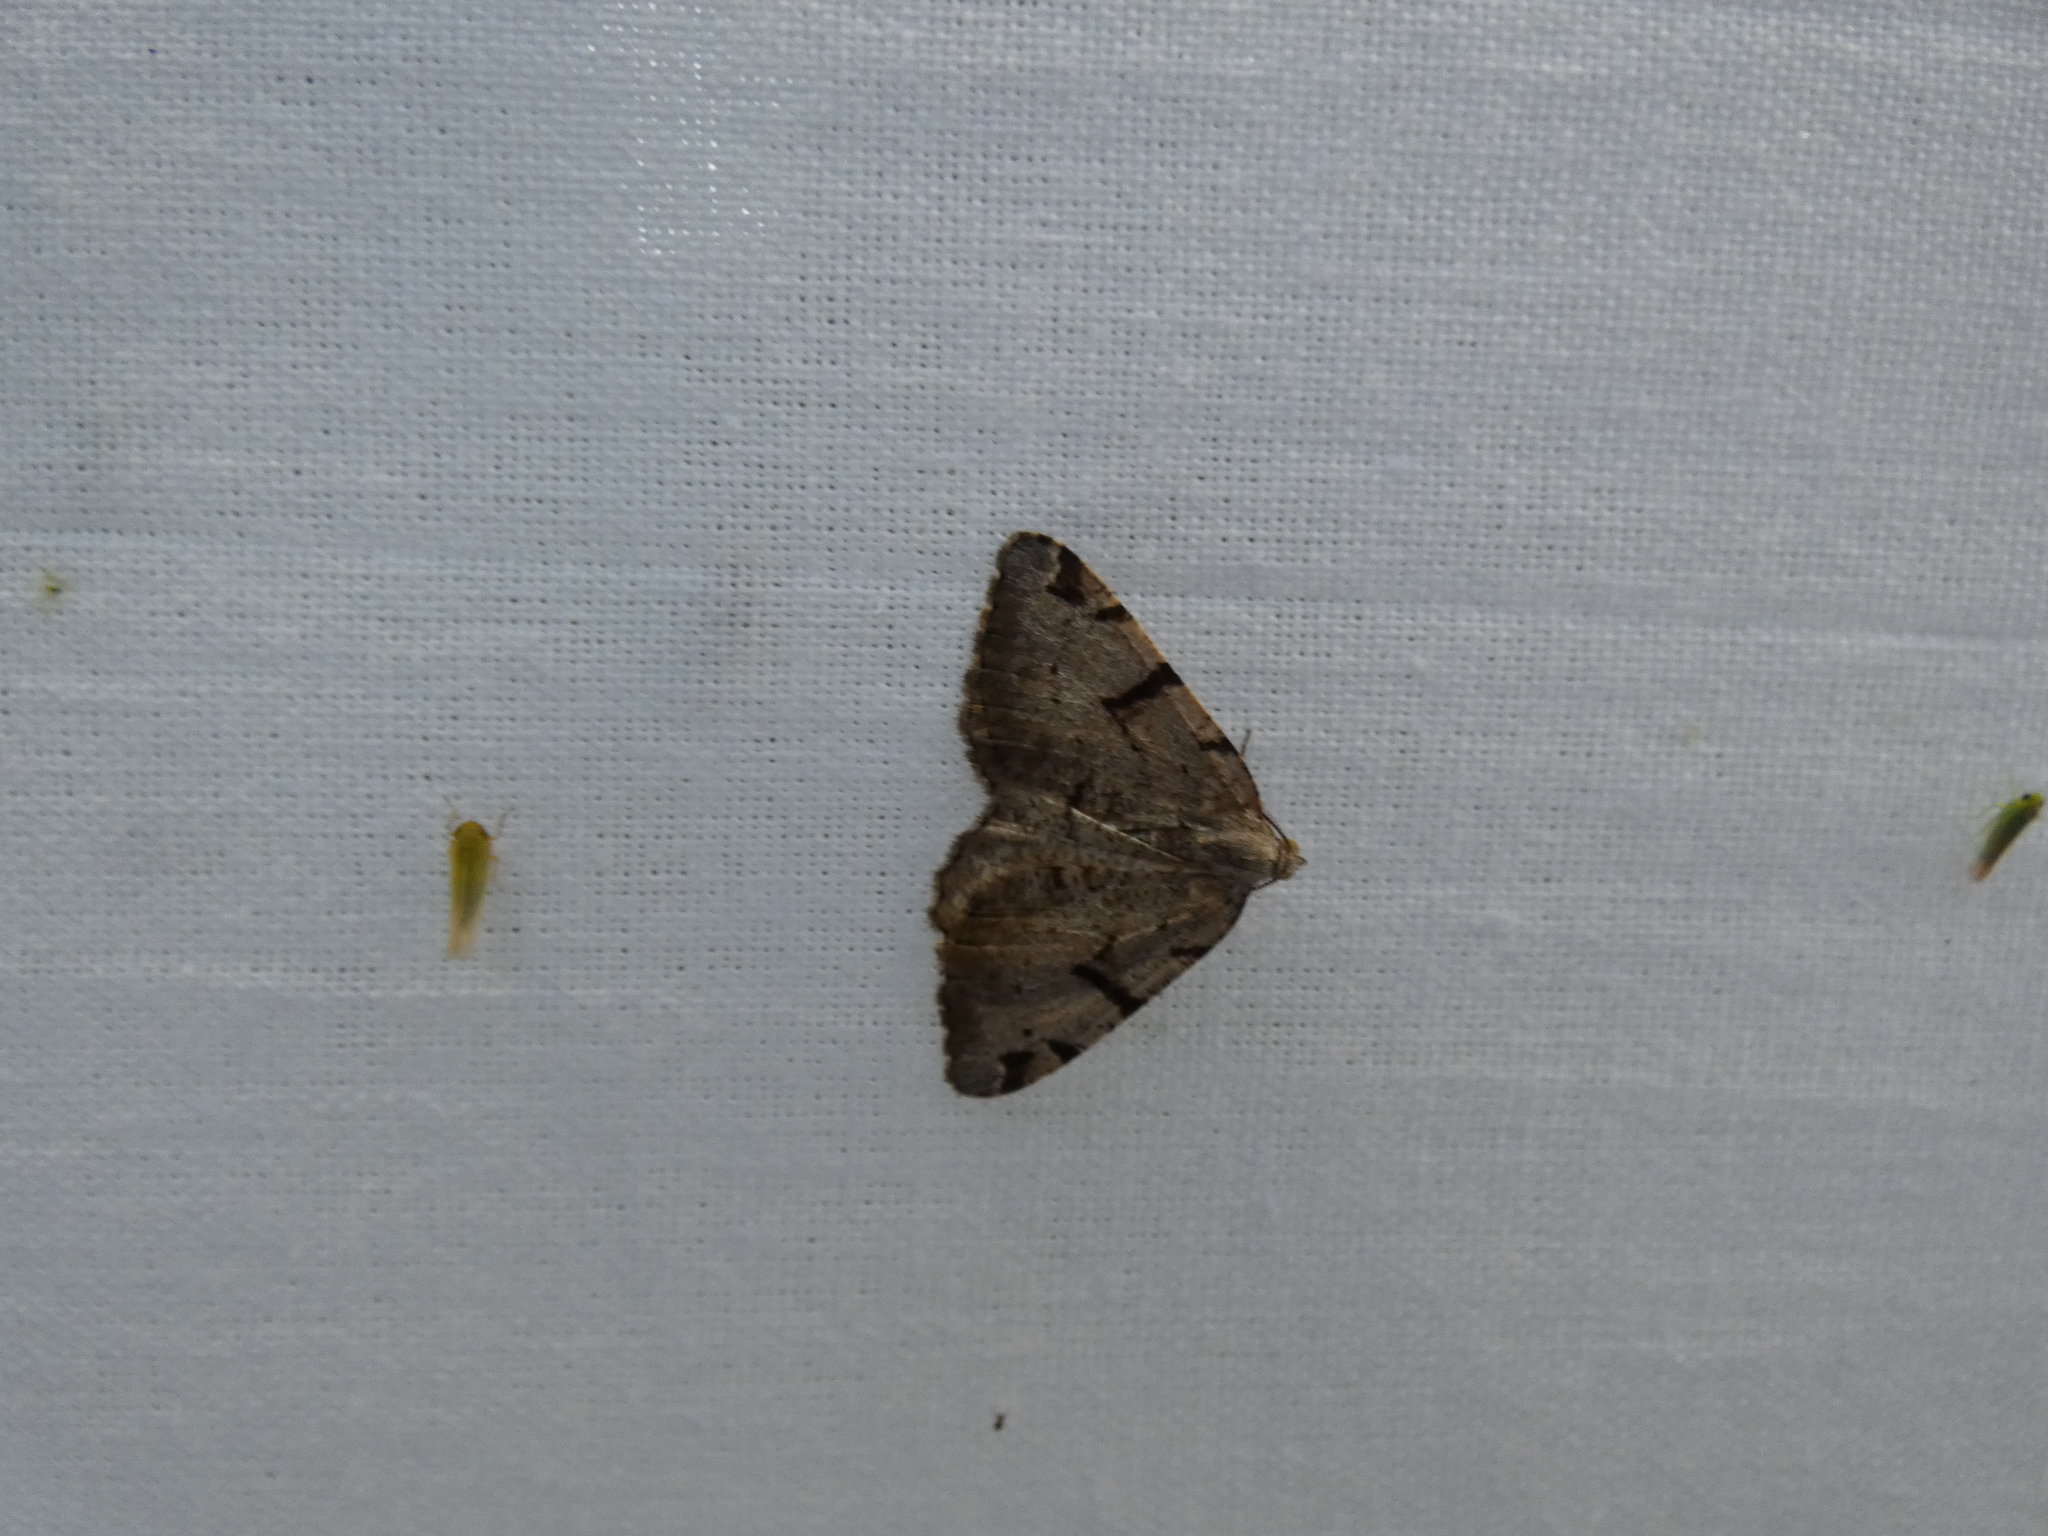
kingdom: Animalia
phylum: Arthropoda
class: Insecta
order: Lepidoptera
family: Geometridae
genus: Macaria
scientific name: Macaria wauaria
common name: V-moth
